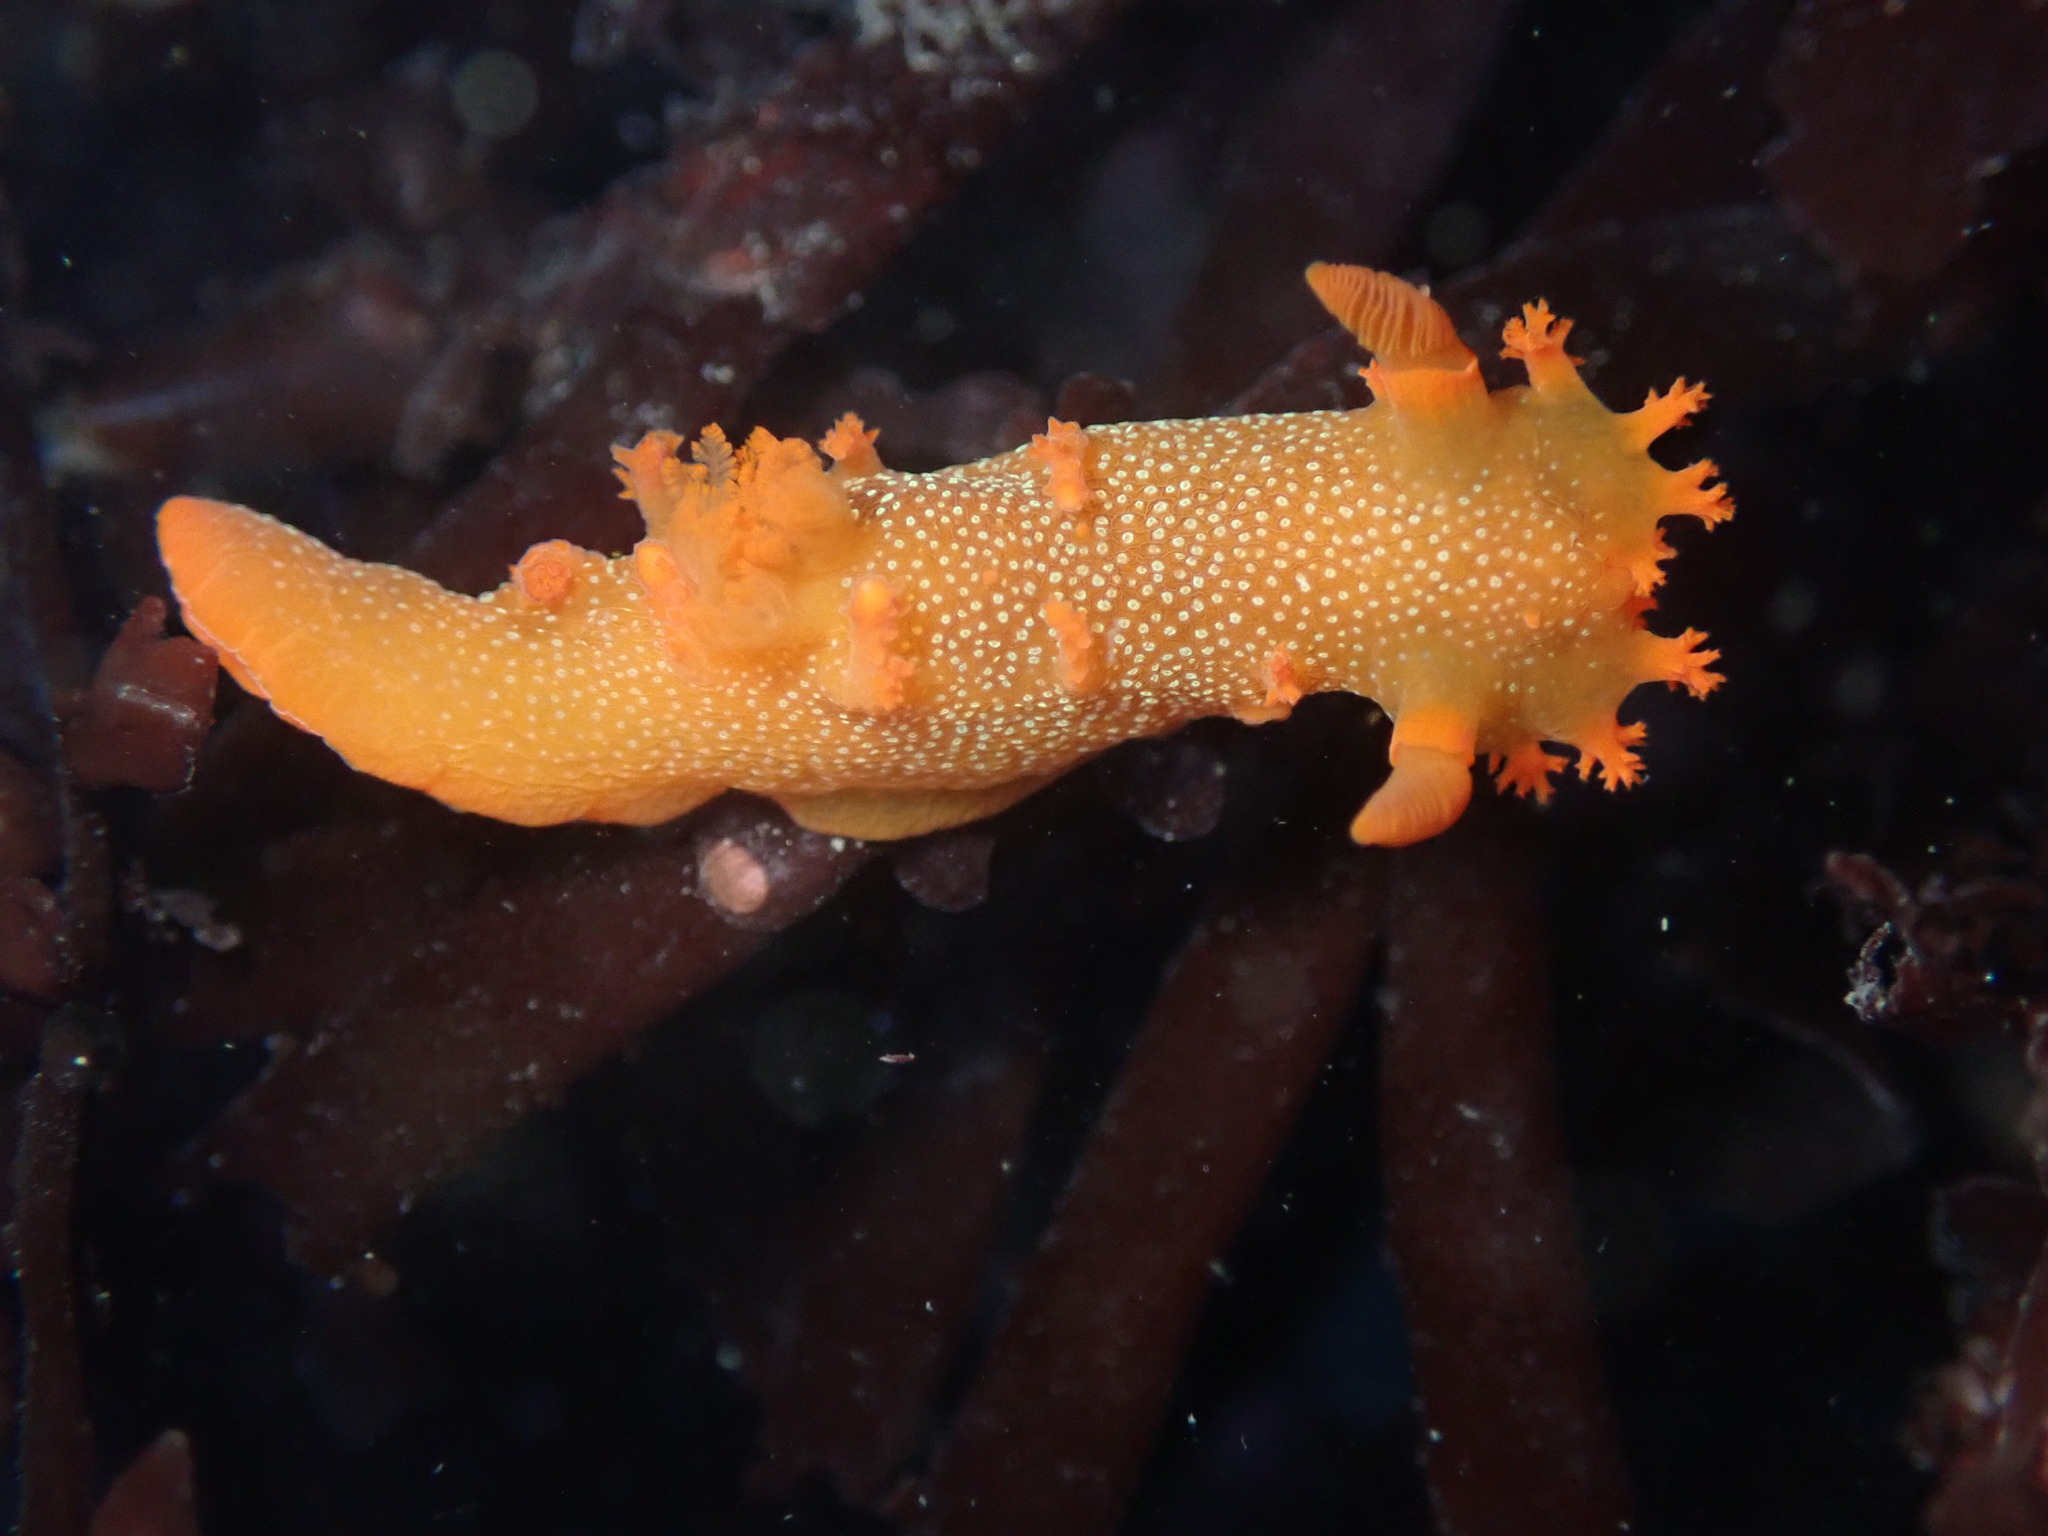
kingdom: Animalia
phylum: Mollusca
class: Gastropoda
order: Nudibranchia
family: Polyceridae
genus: Triopha
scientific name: Triopha maculata
